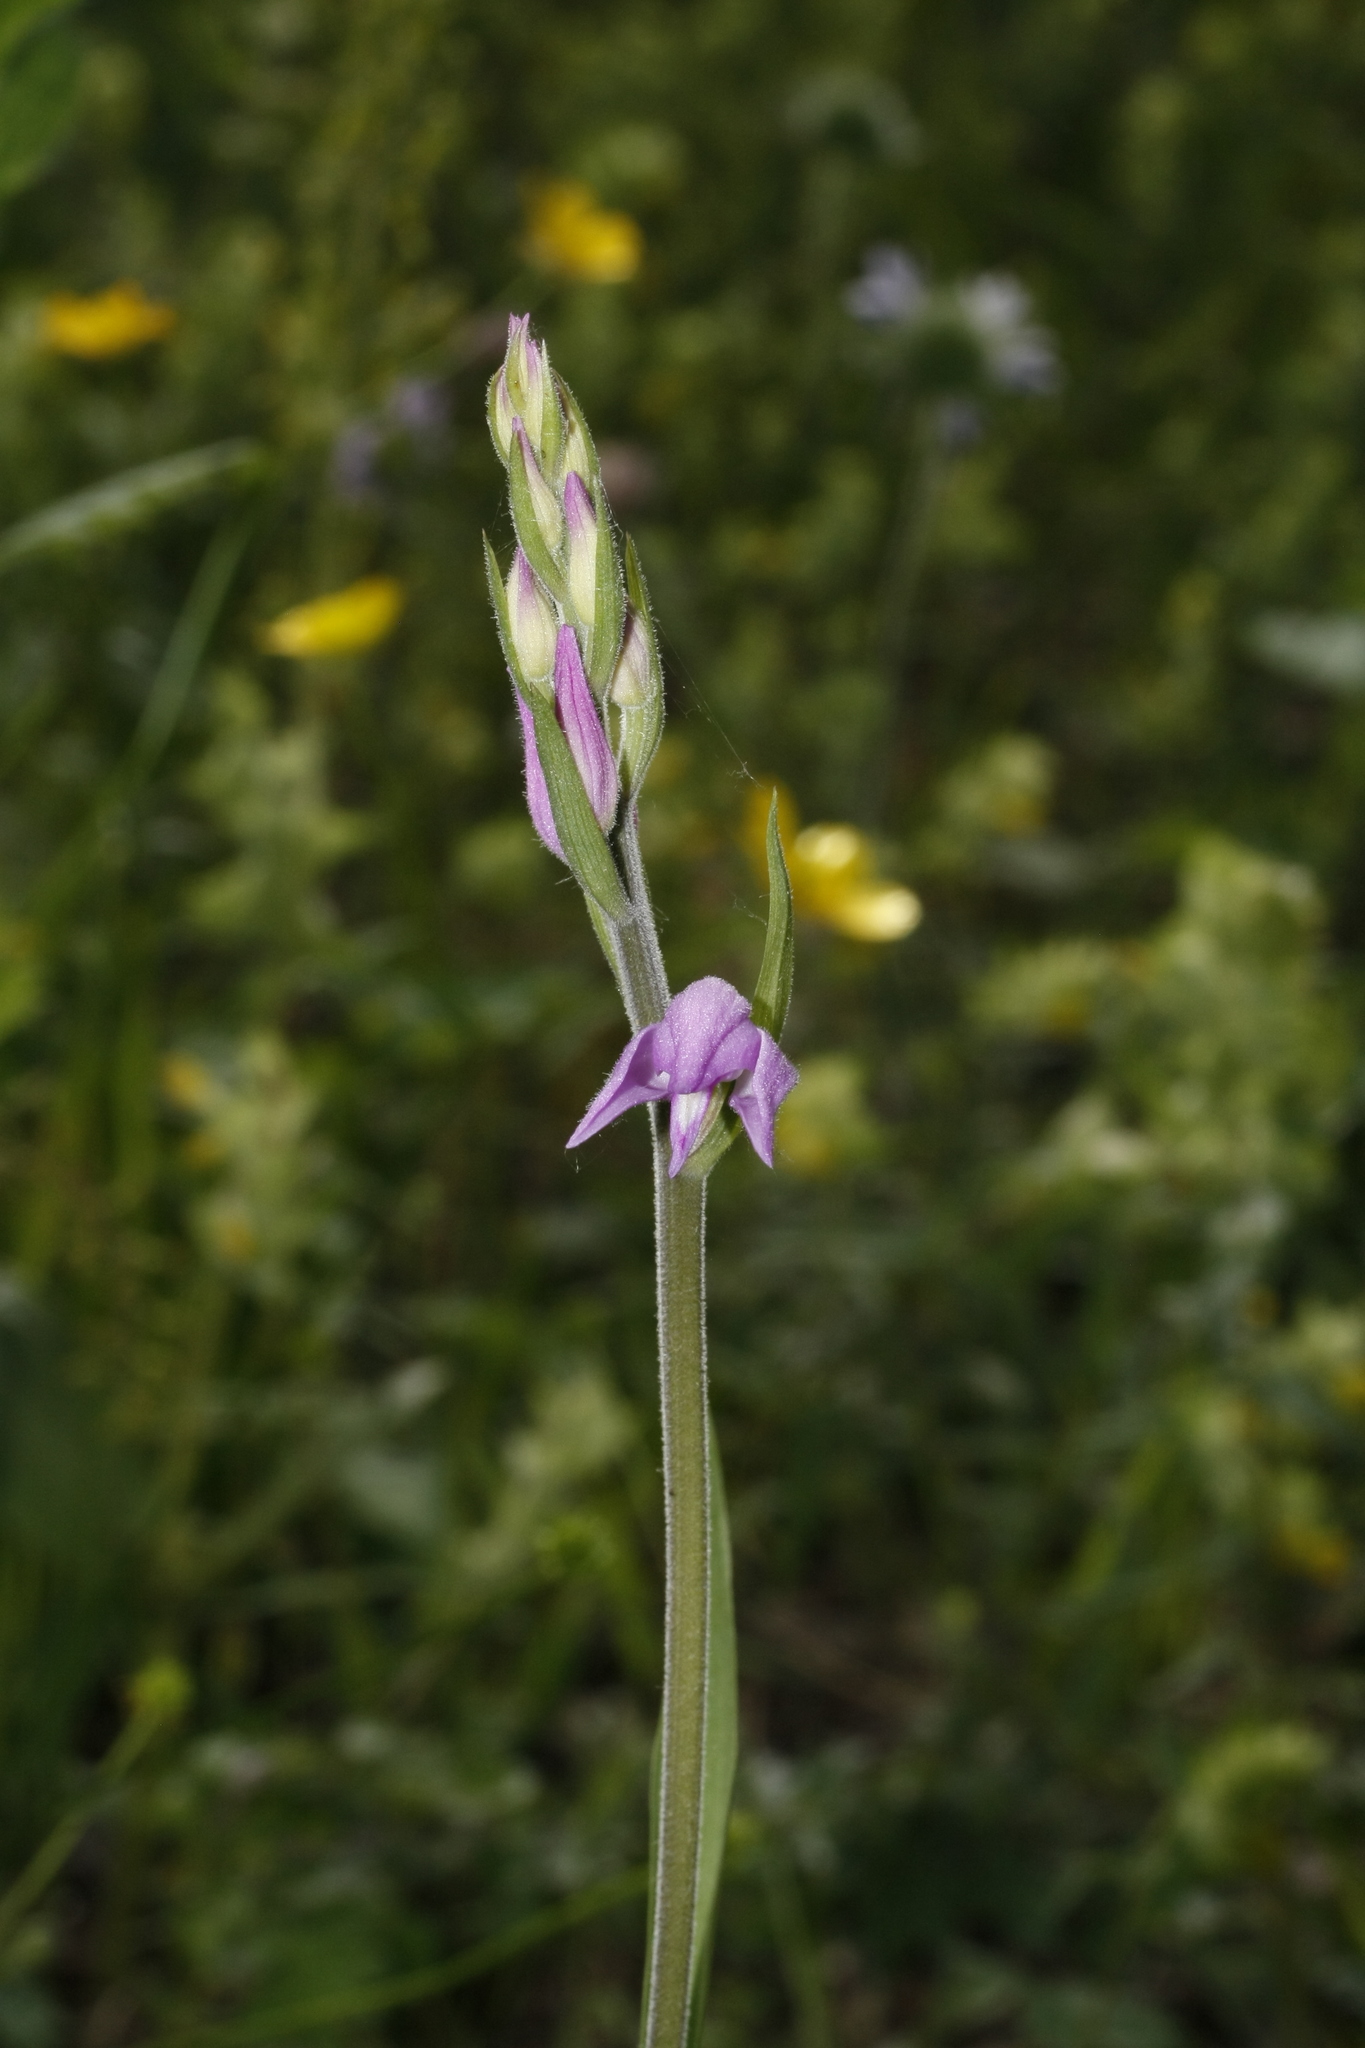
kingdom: Plantae
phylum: Tracheophyta
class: Liliopsida
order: Asparagales
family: Orchidaceae
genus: Cephalanthera
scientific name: Cephalanthera rubra
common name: Red helleborine
